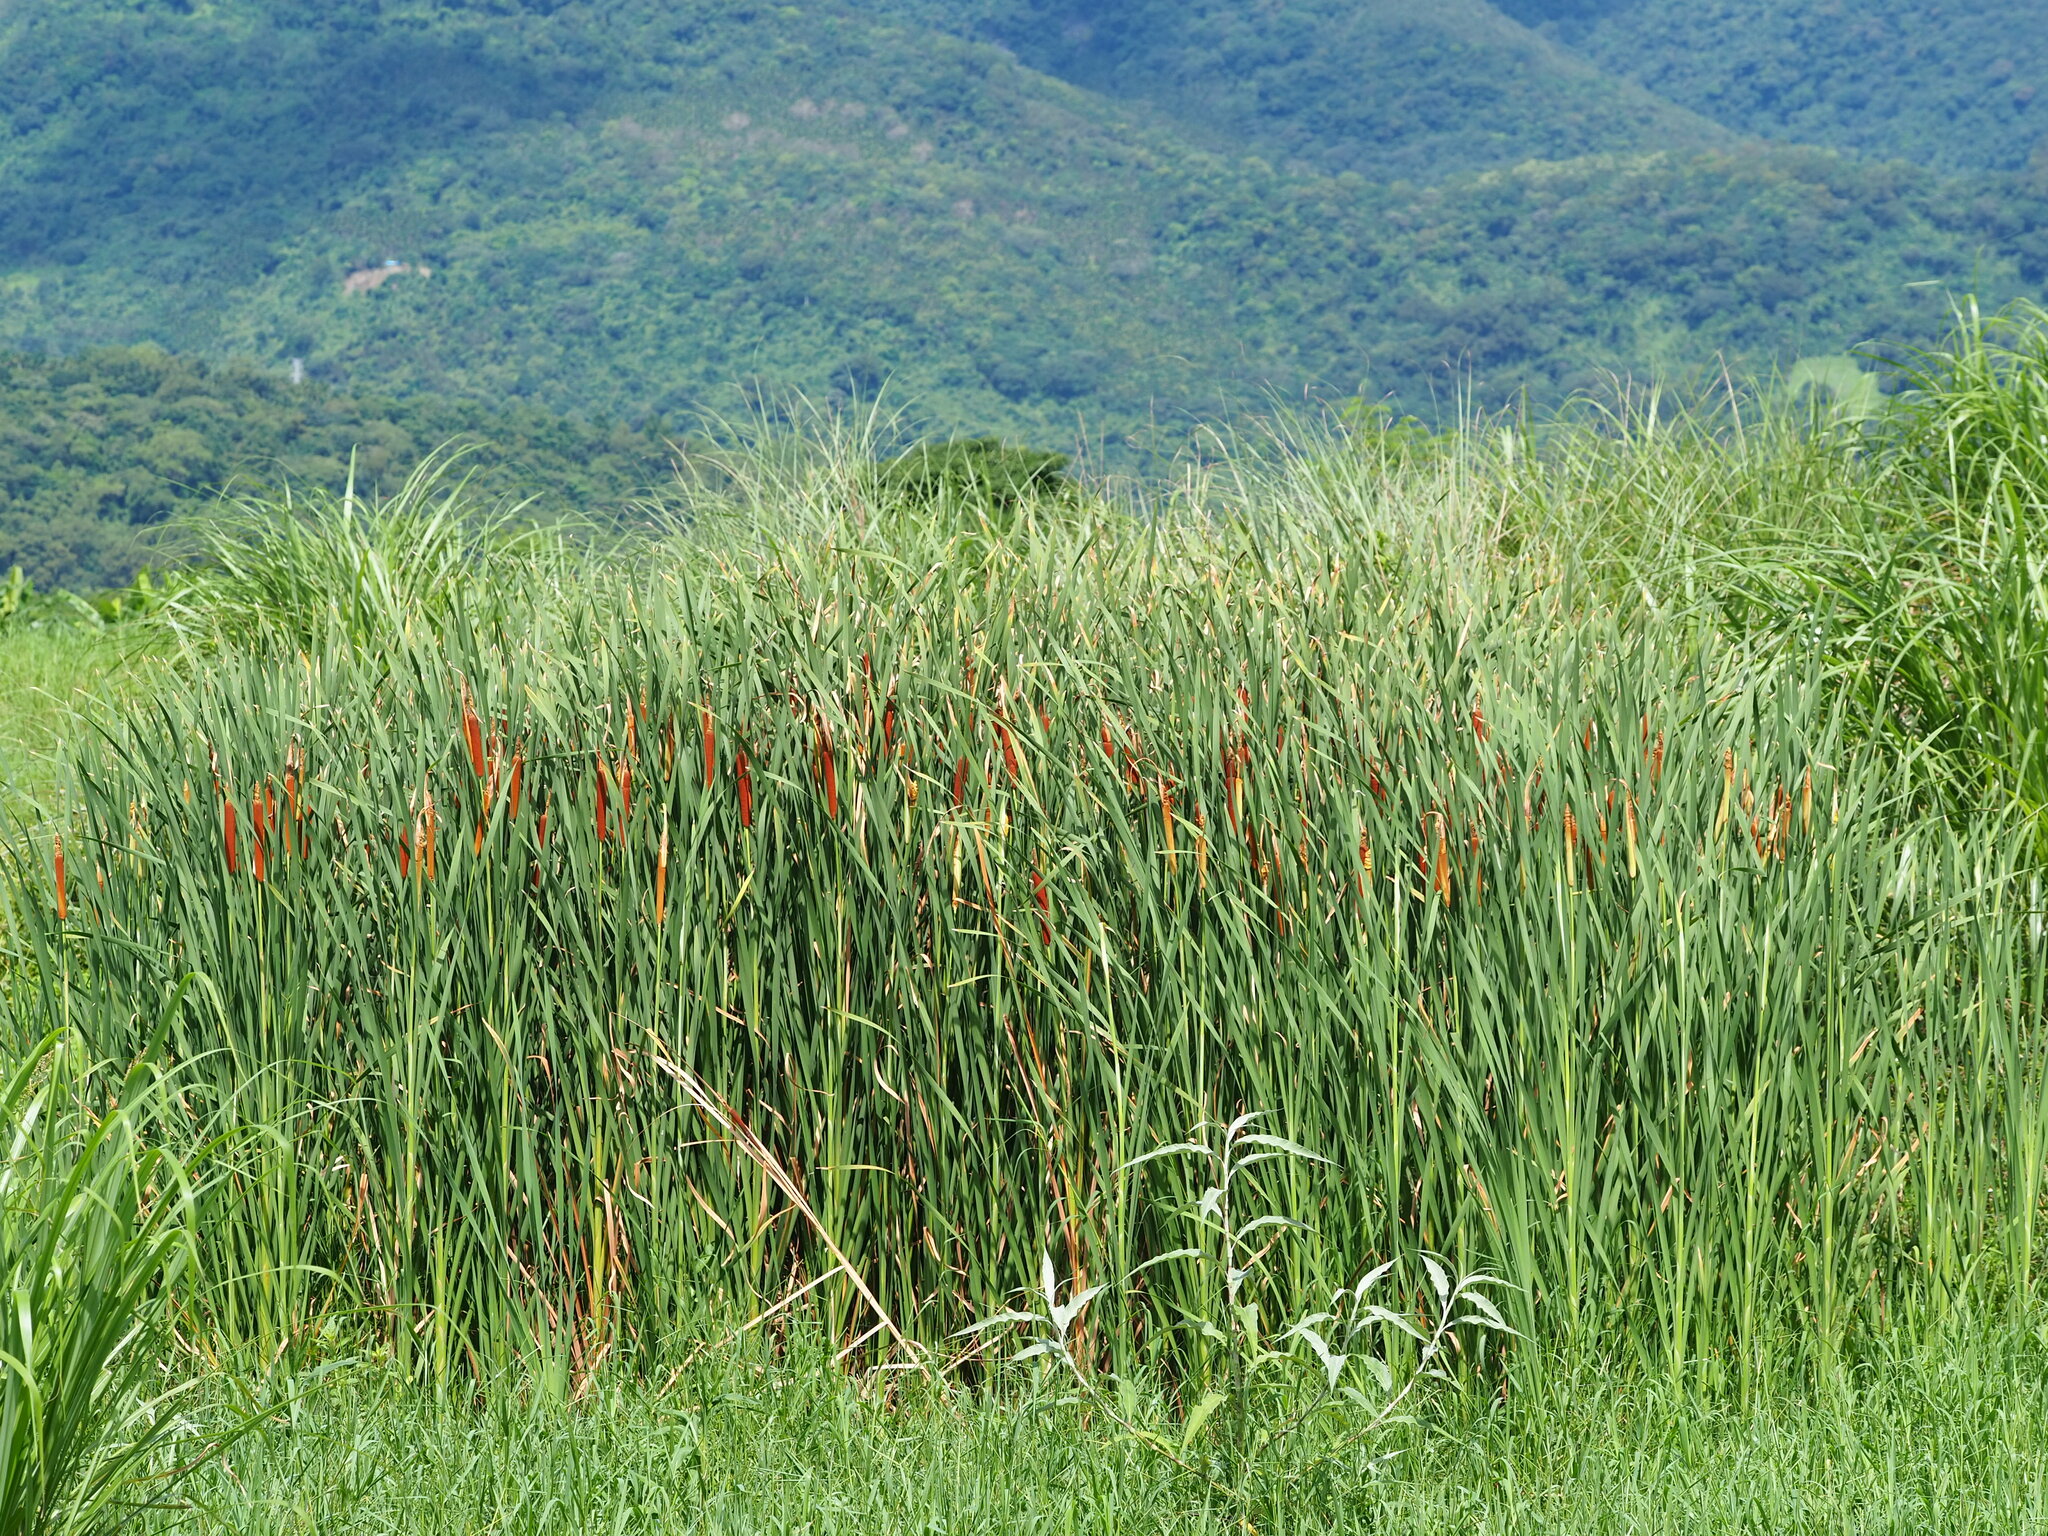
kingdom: Plantae
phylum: Tracheophyta
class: Liliopsida
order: Poales
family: Typhaceae
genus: Typha
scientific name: Typha orientalis
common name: Bullrush
